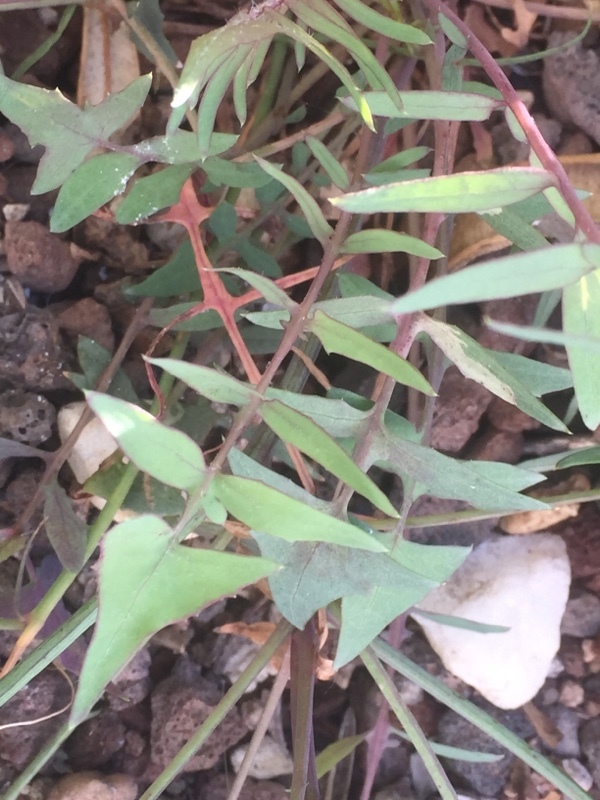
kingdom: Plantae
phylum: Tracheophyta
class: Magnoliopsida
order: Asterales
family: Asteraceae
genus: Sonchus
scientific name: Sonchus tenerrimus
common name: Clammy sowthistle
